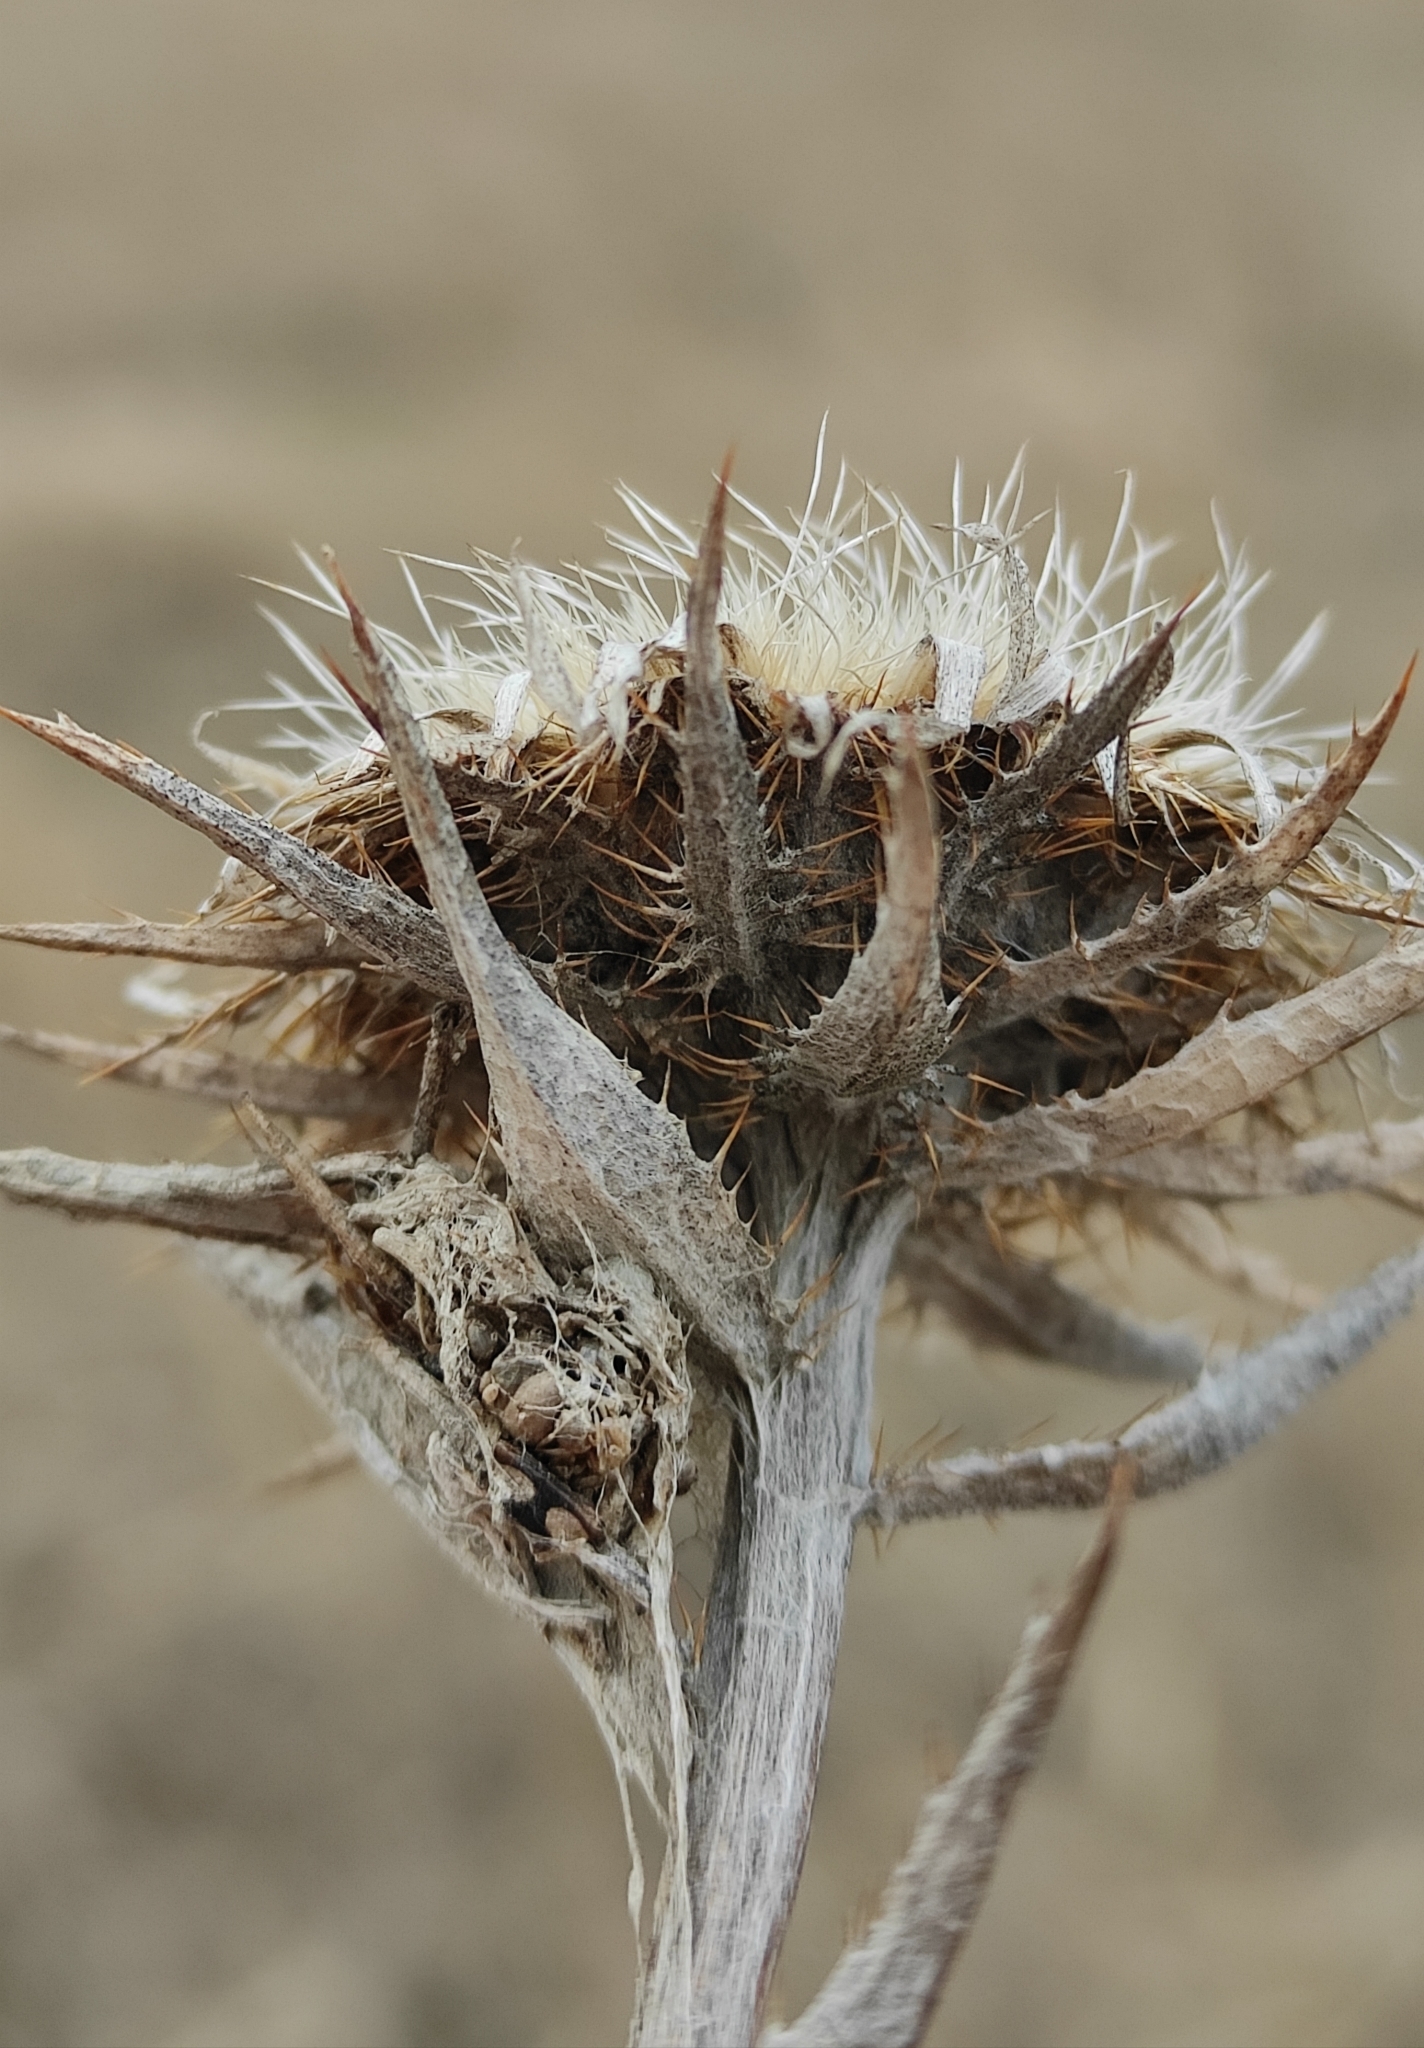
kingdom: Plantae
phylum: Tracheophyta
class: Magnoliopsida
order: Asterales
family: Asteraceae
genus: Carlina
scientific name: Carlina biebersteinii
